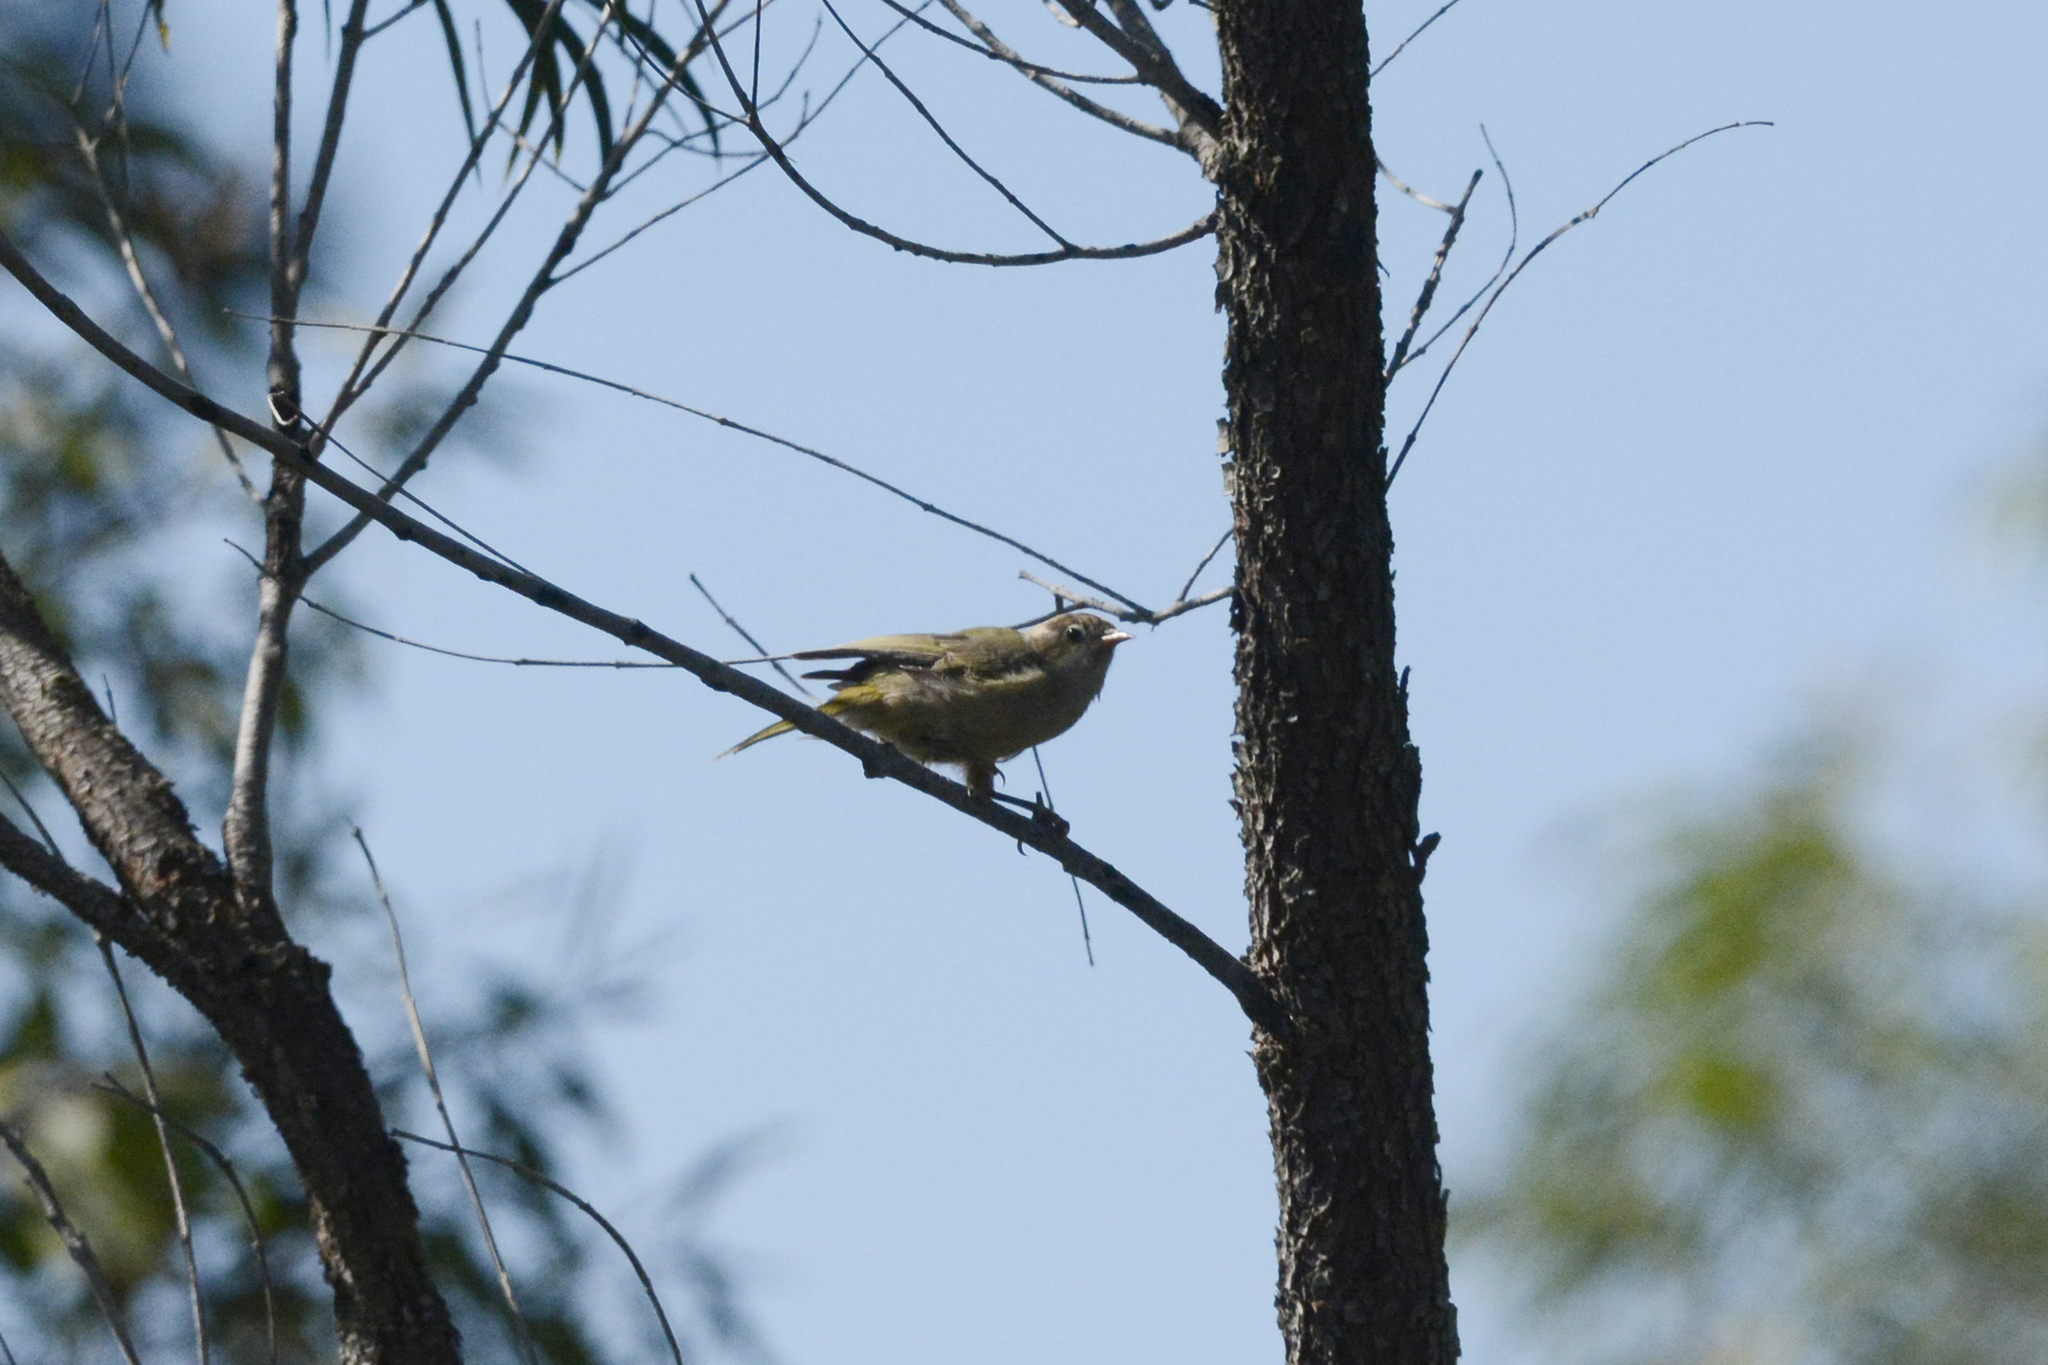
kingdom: Animalia
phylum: Chordata
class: Aves
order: Passeriformes
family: Meliphagidae
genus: Melithreptus
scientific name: Melithreptus brevirostris
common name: Brown-headed honeyeater
